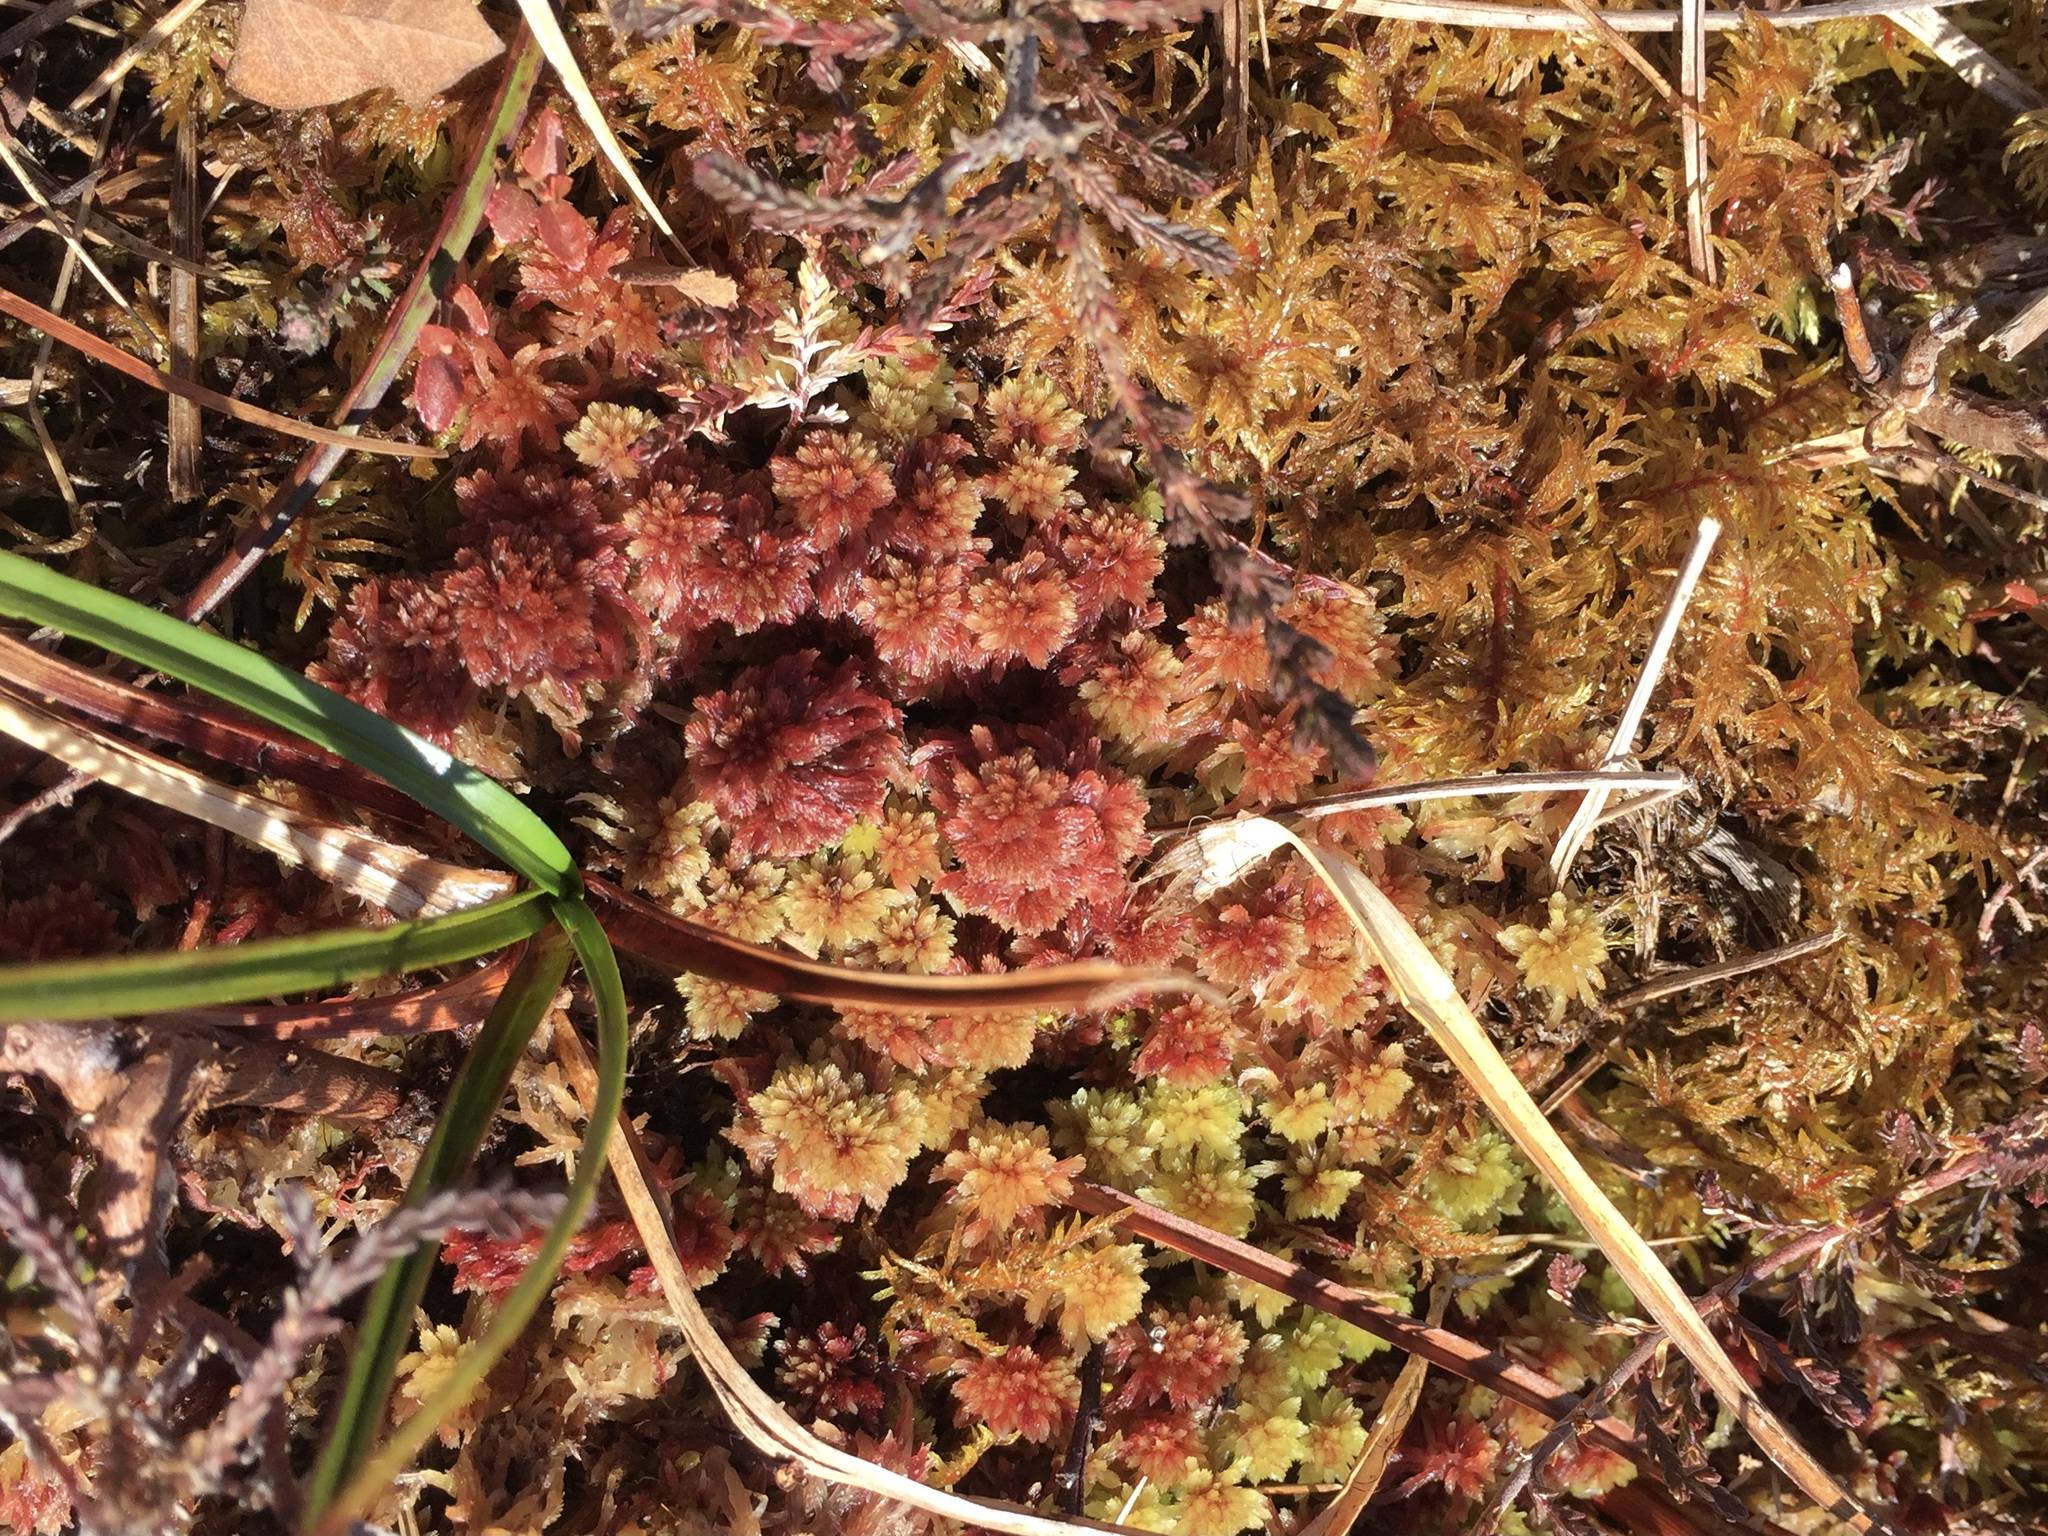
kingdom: Plantae
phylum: Bryophyta
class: Sphagnopsida
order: Sphagnales
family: Sphagnaceae
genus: Sphagnum
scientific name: Sphagnum capillifolium
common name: Small red peat moss
